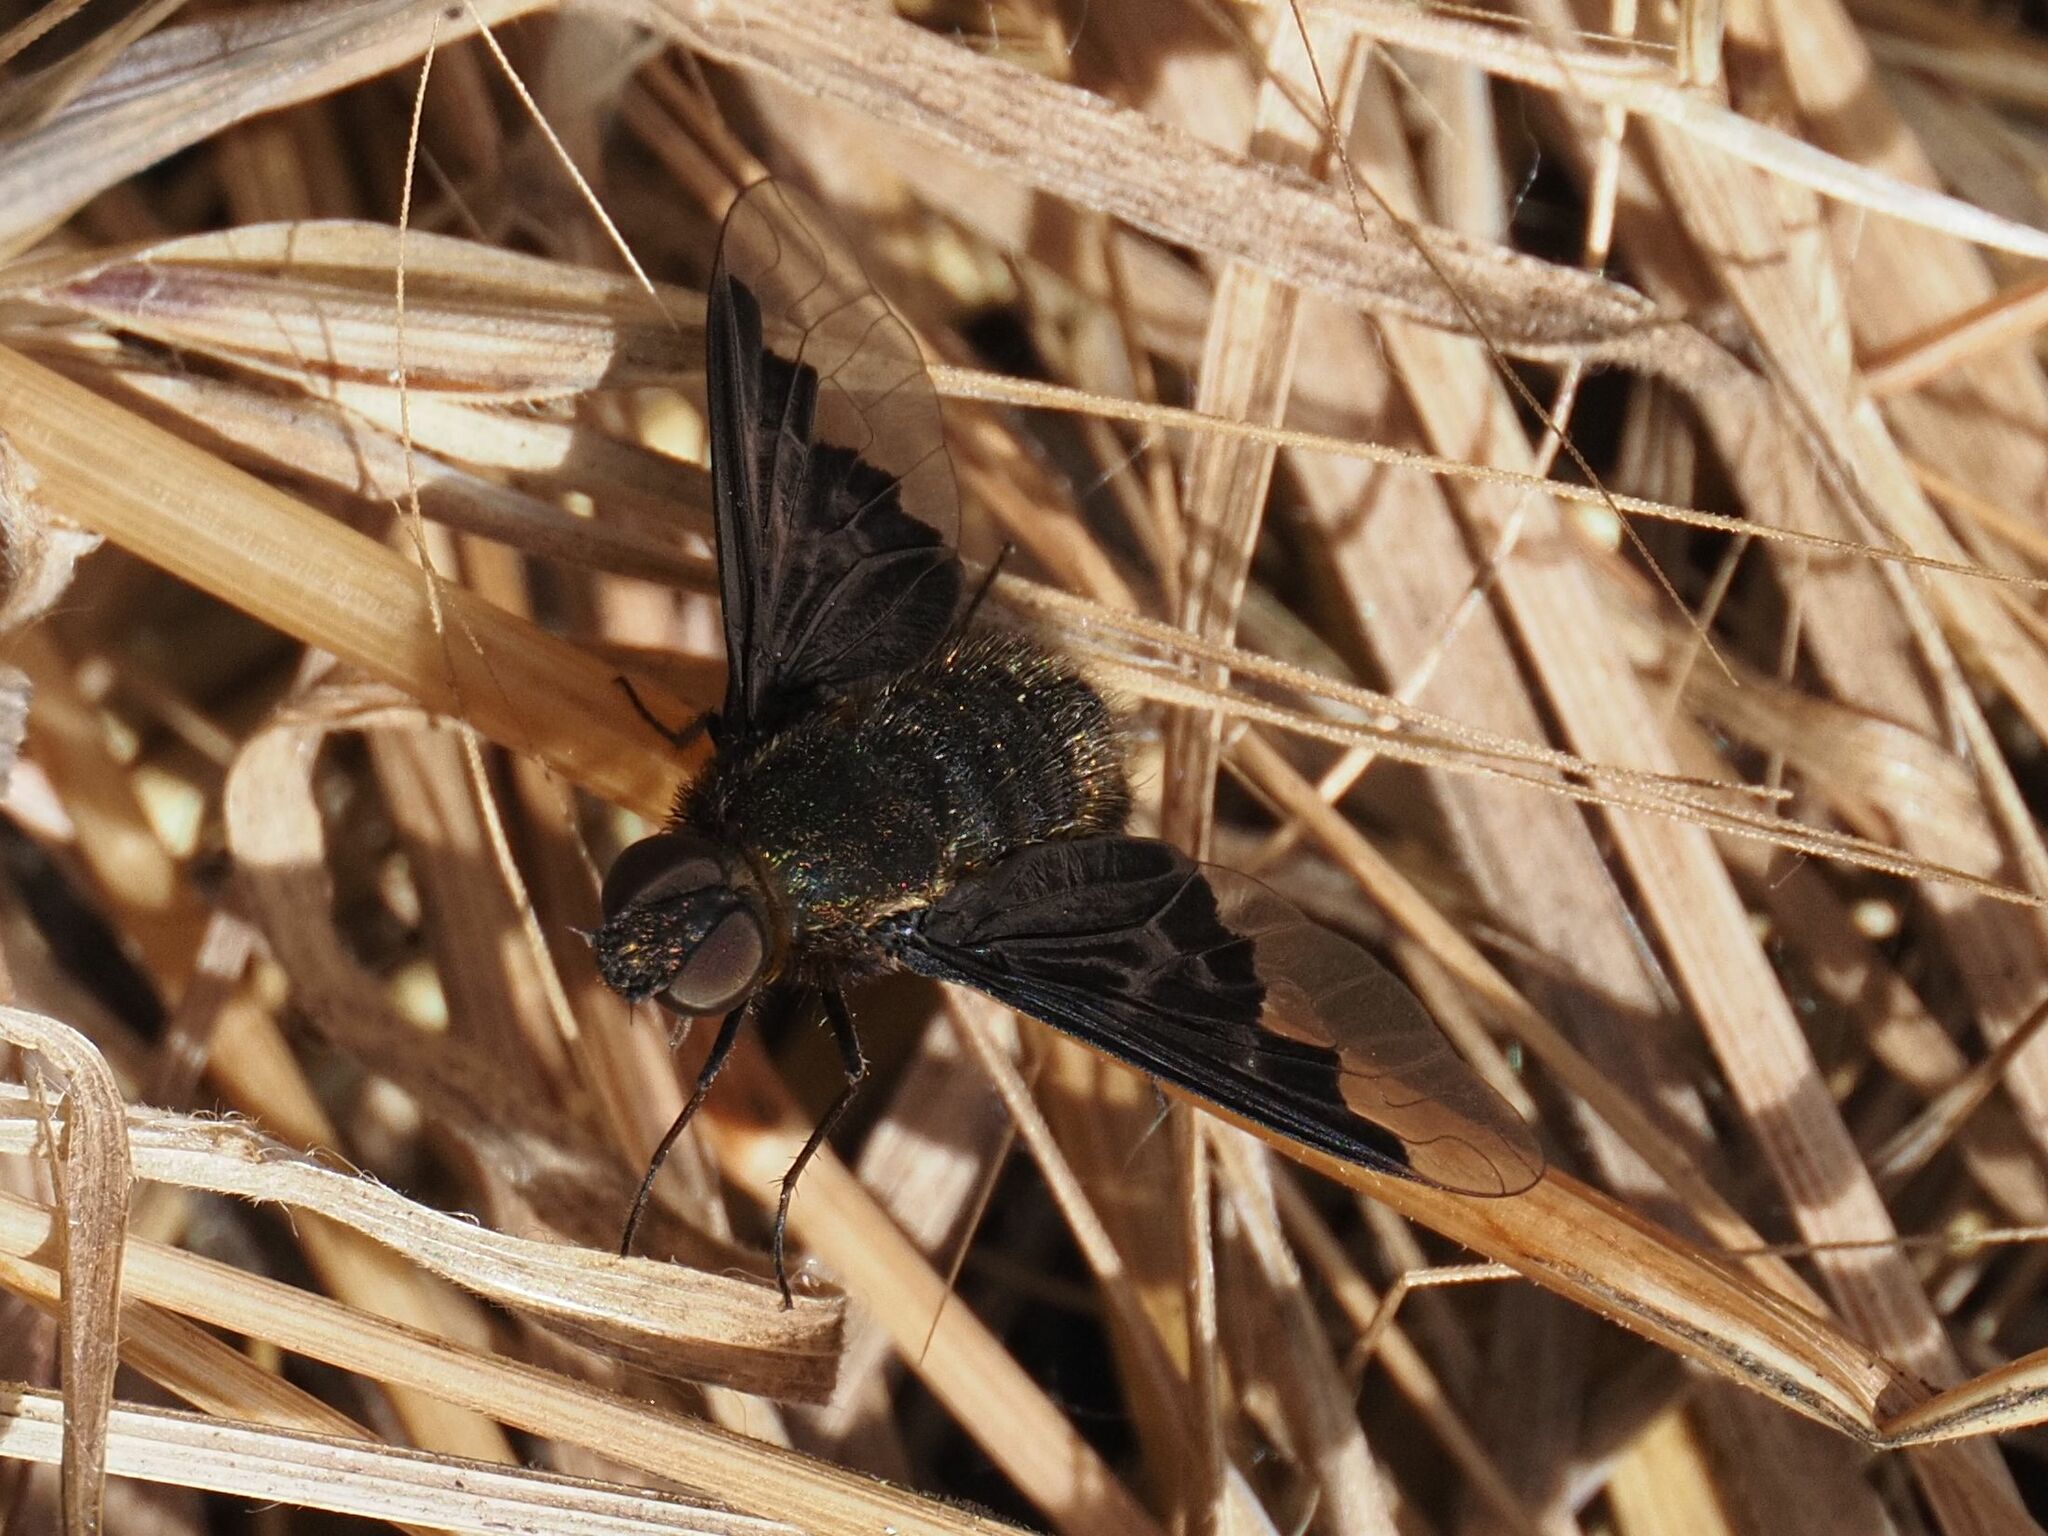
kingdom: Animalia
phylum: Arthropoda
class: Insecta
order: Diptera
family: Bombyliidae
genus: Hemipenthes
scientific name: Hemipenthes morio
